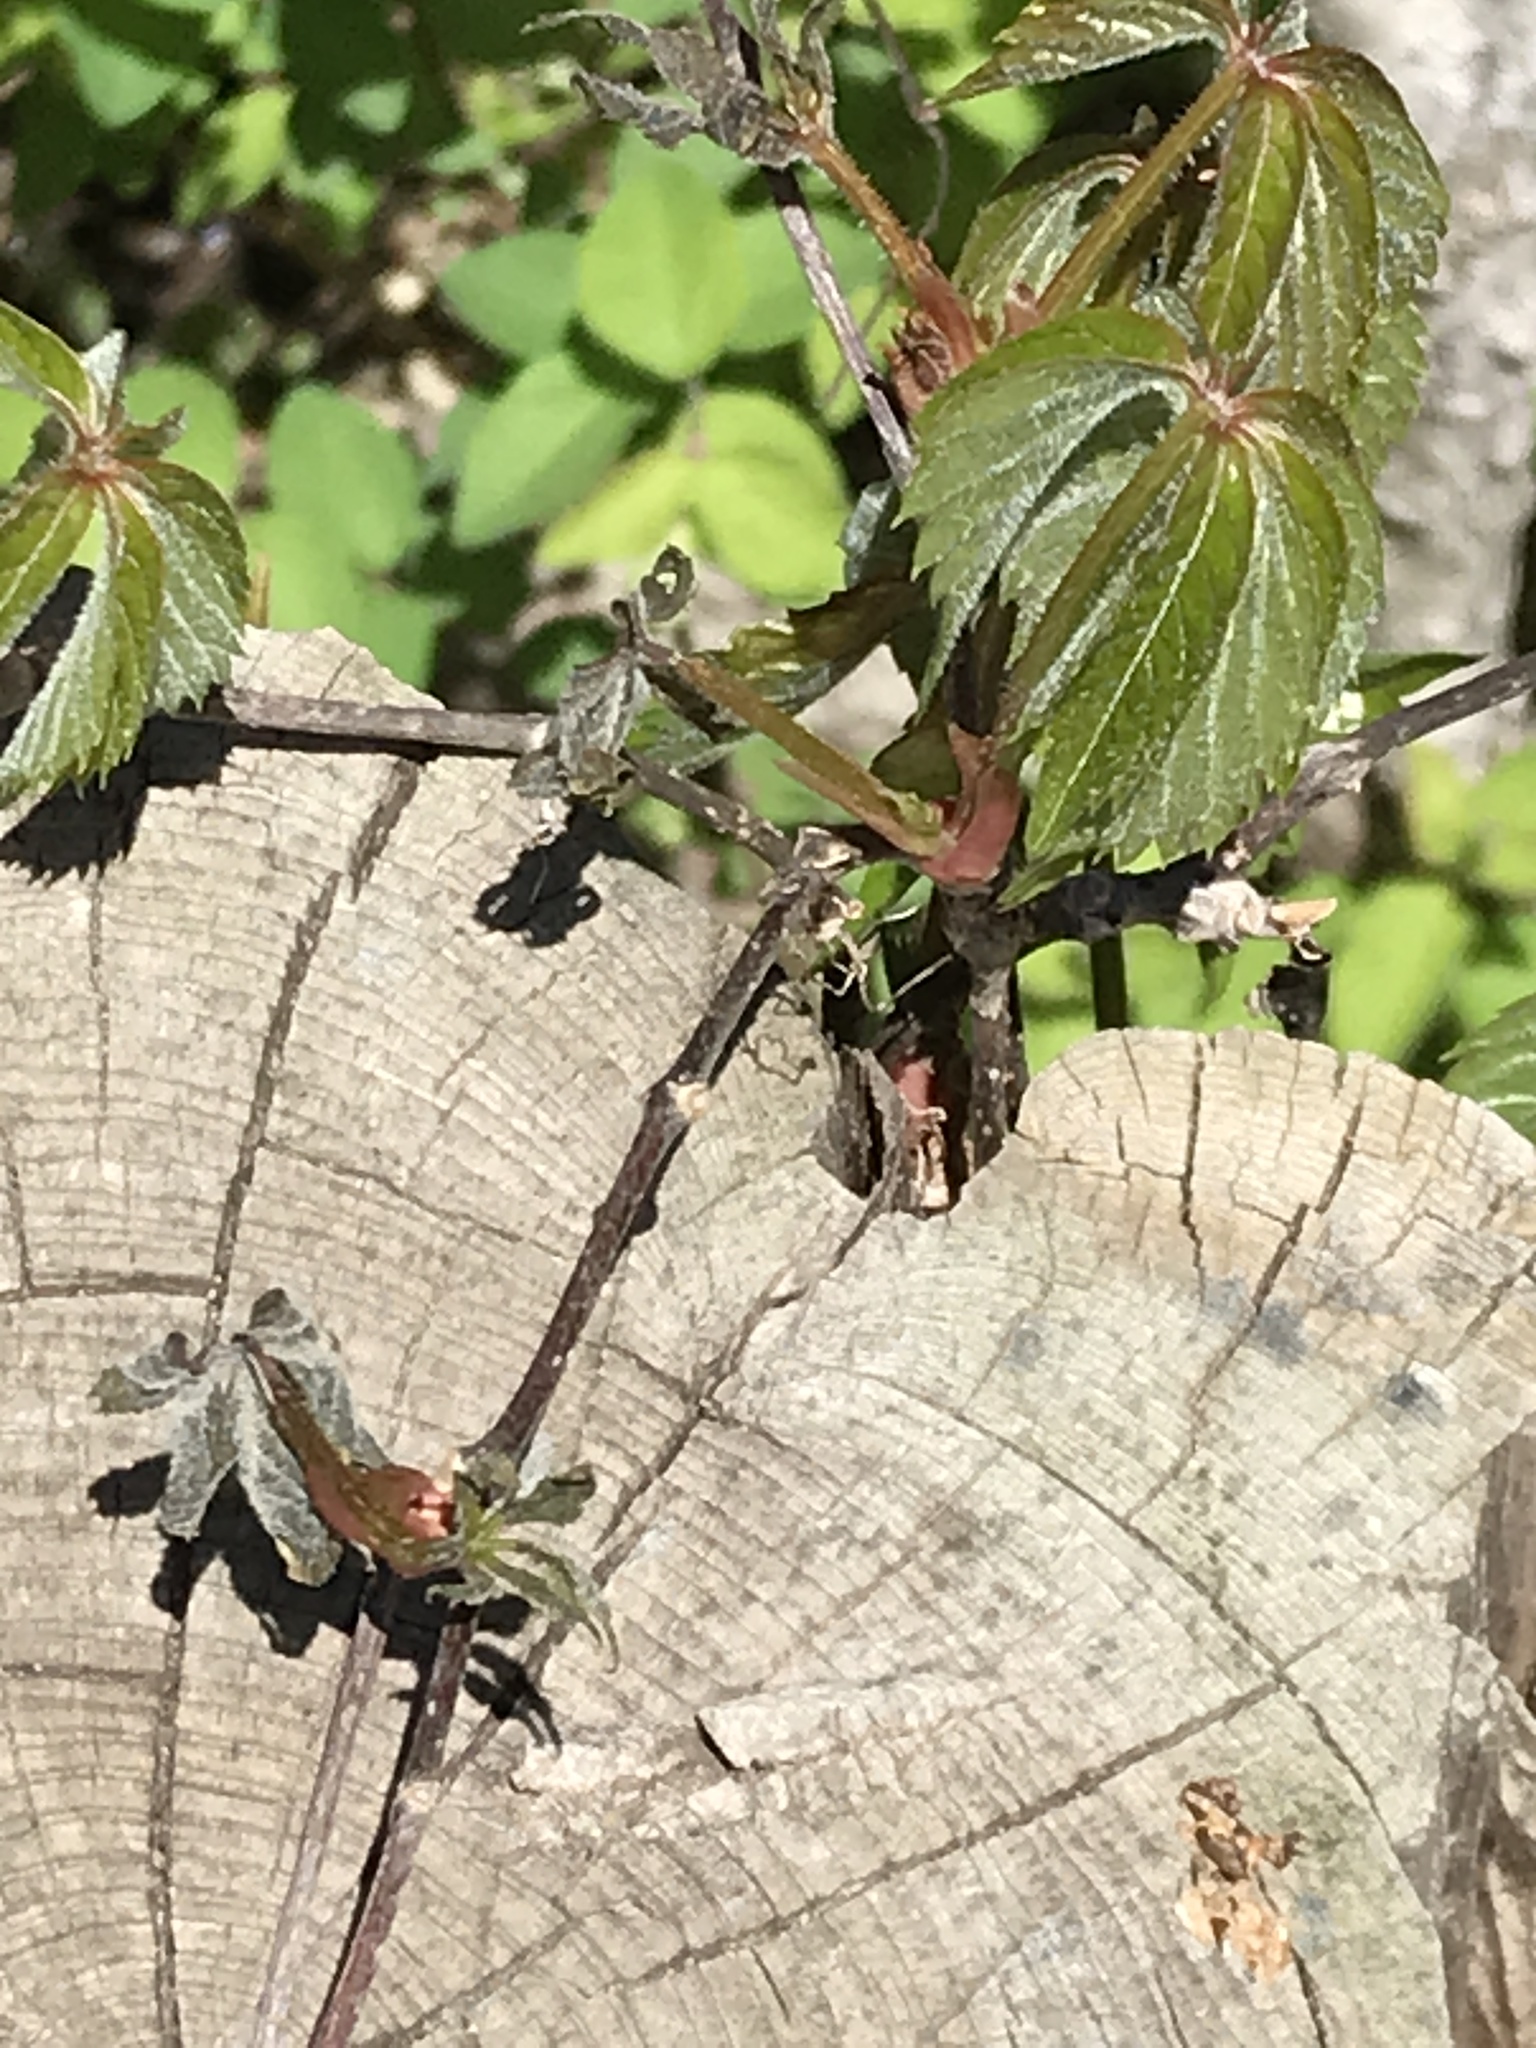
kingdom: Plantae
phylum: Tracheophyta
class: Magnoliopsida
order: Vitales
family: Vitaceae
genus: Parthenocissus
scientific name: Parthenocissus quinquefolia
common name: Virginia-creeper
